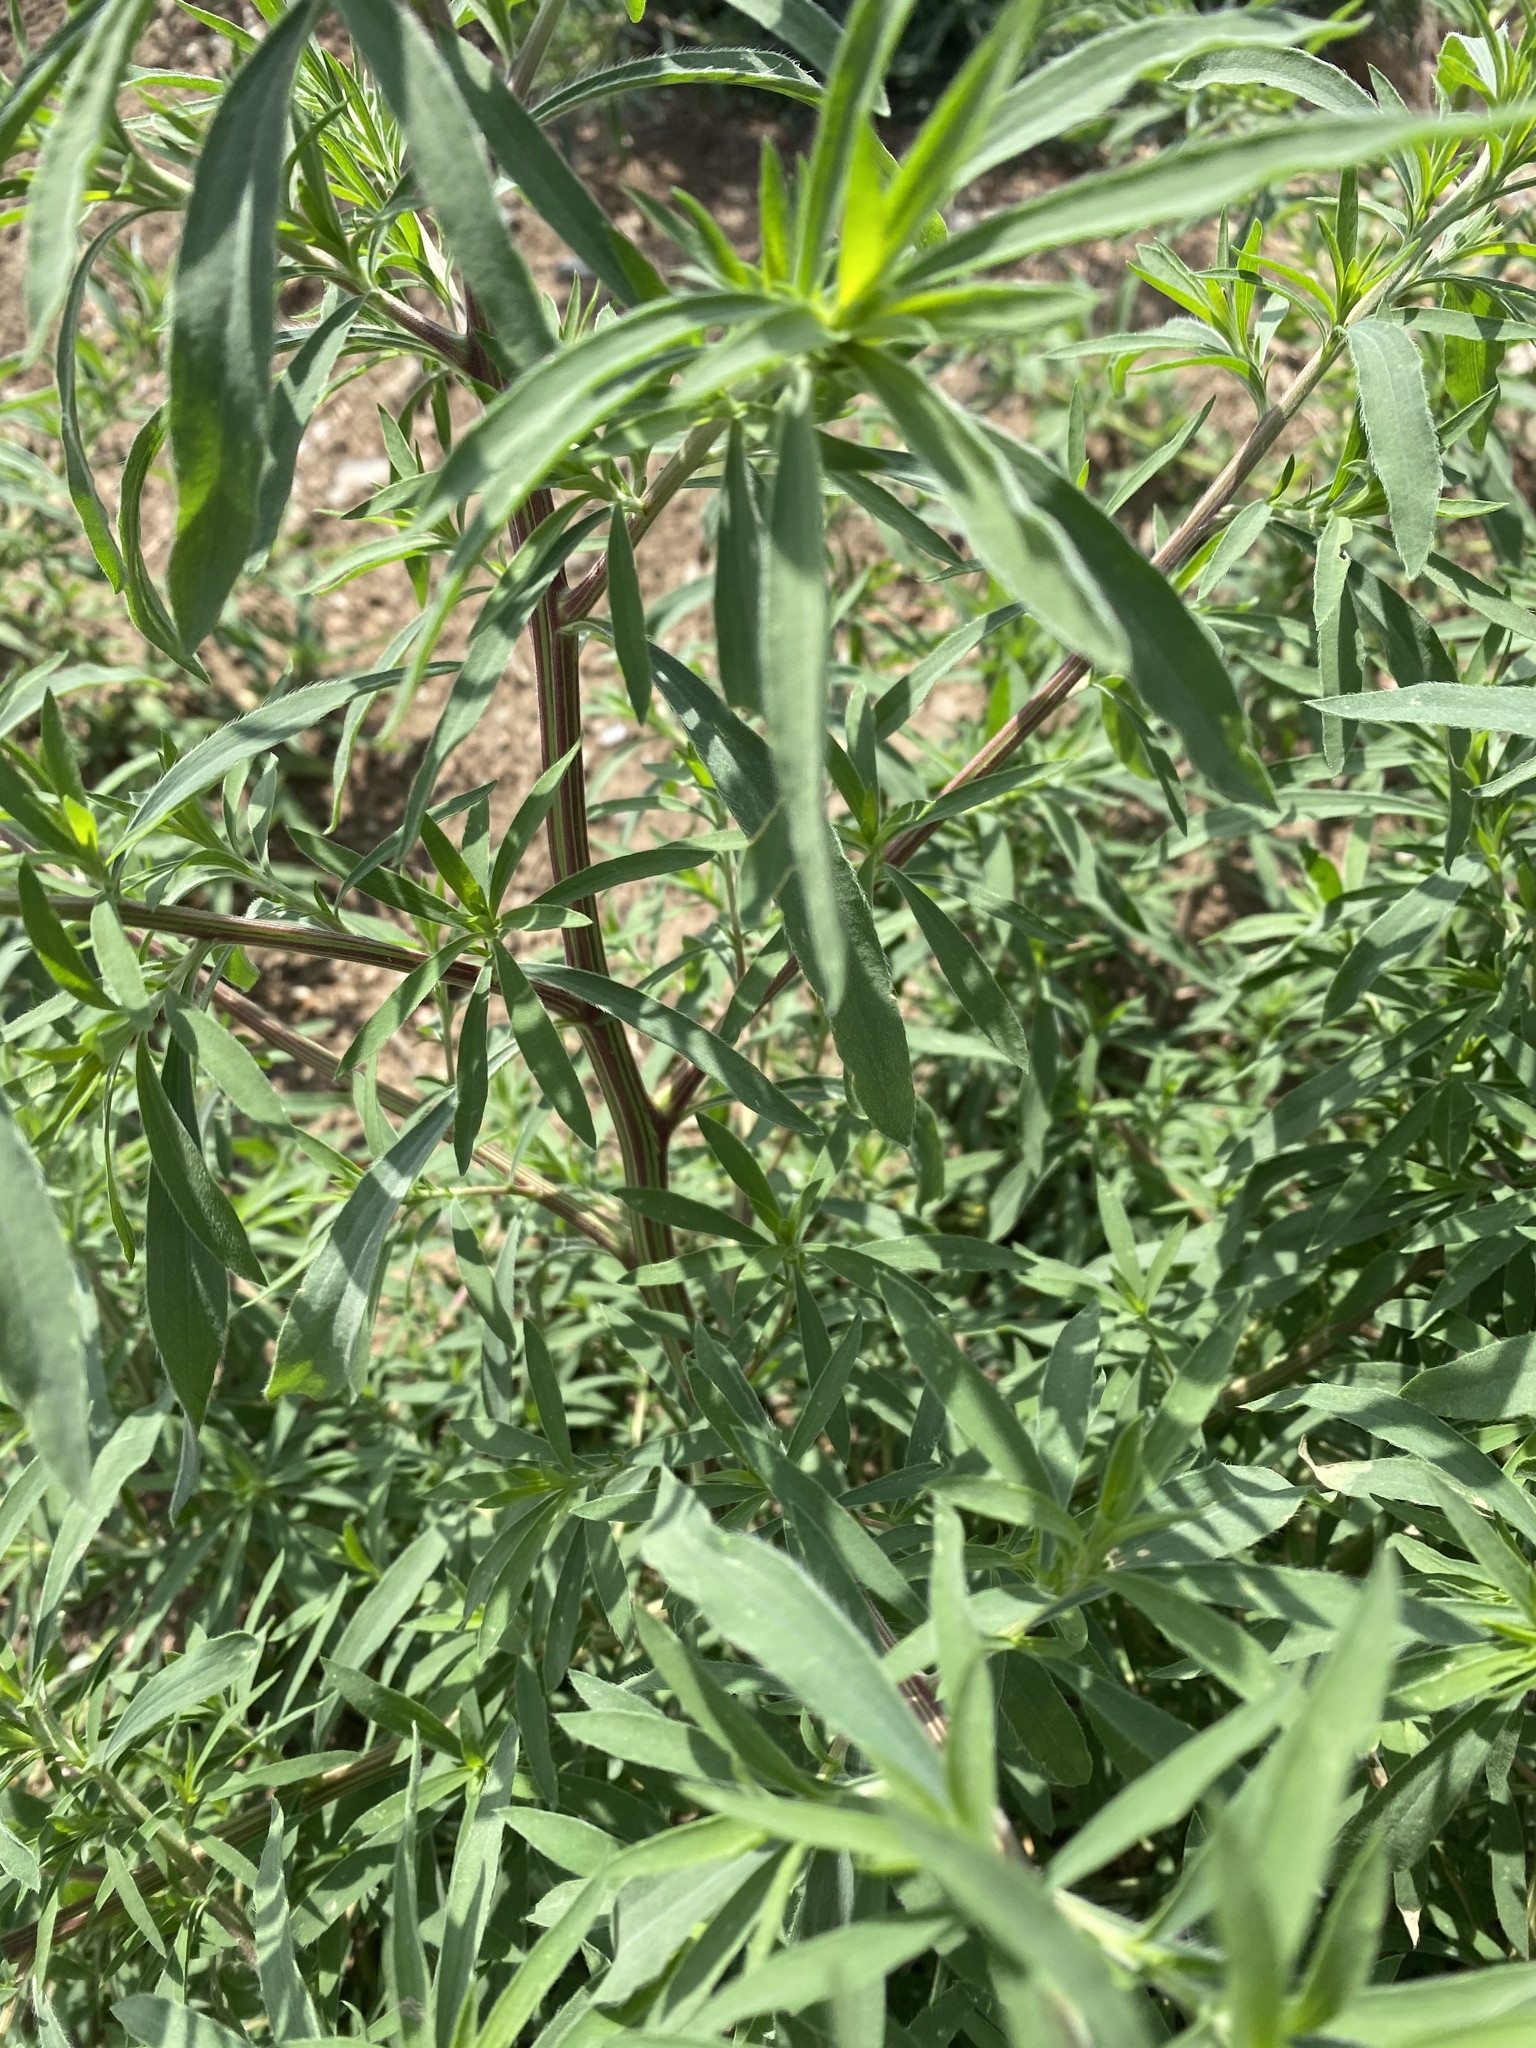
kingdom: Plantae
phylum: Tracheophyta
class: Magnoliopsida
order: Caryophyllales
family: Amaranthaceae
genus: Bassia
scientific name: Bassia scoparia
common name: Belvedere
